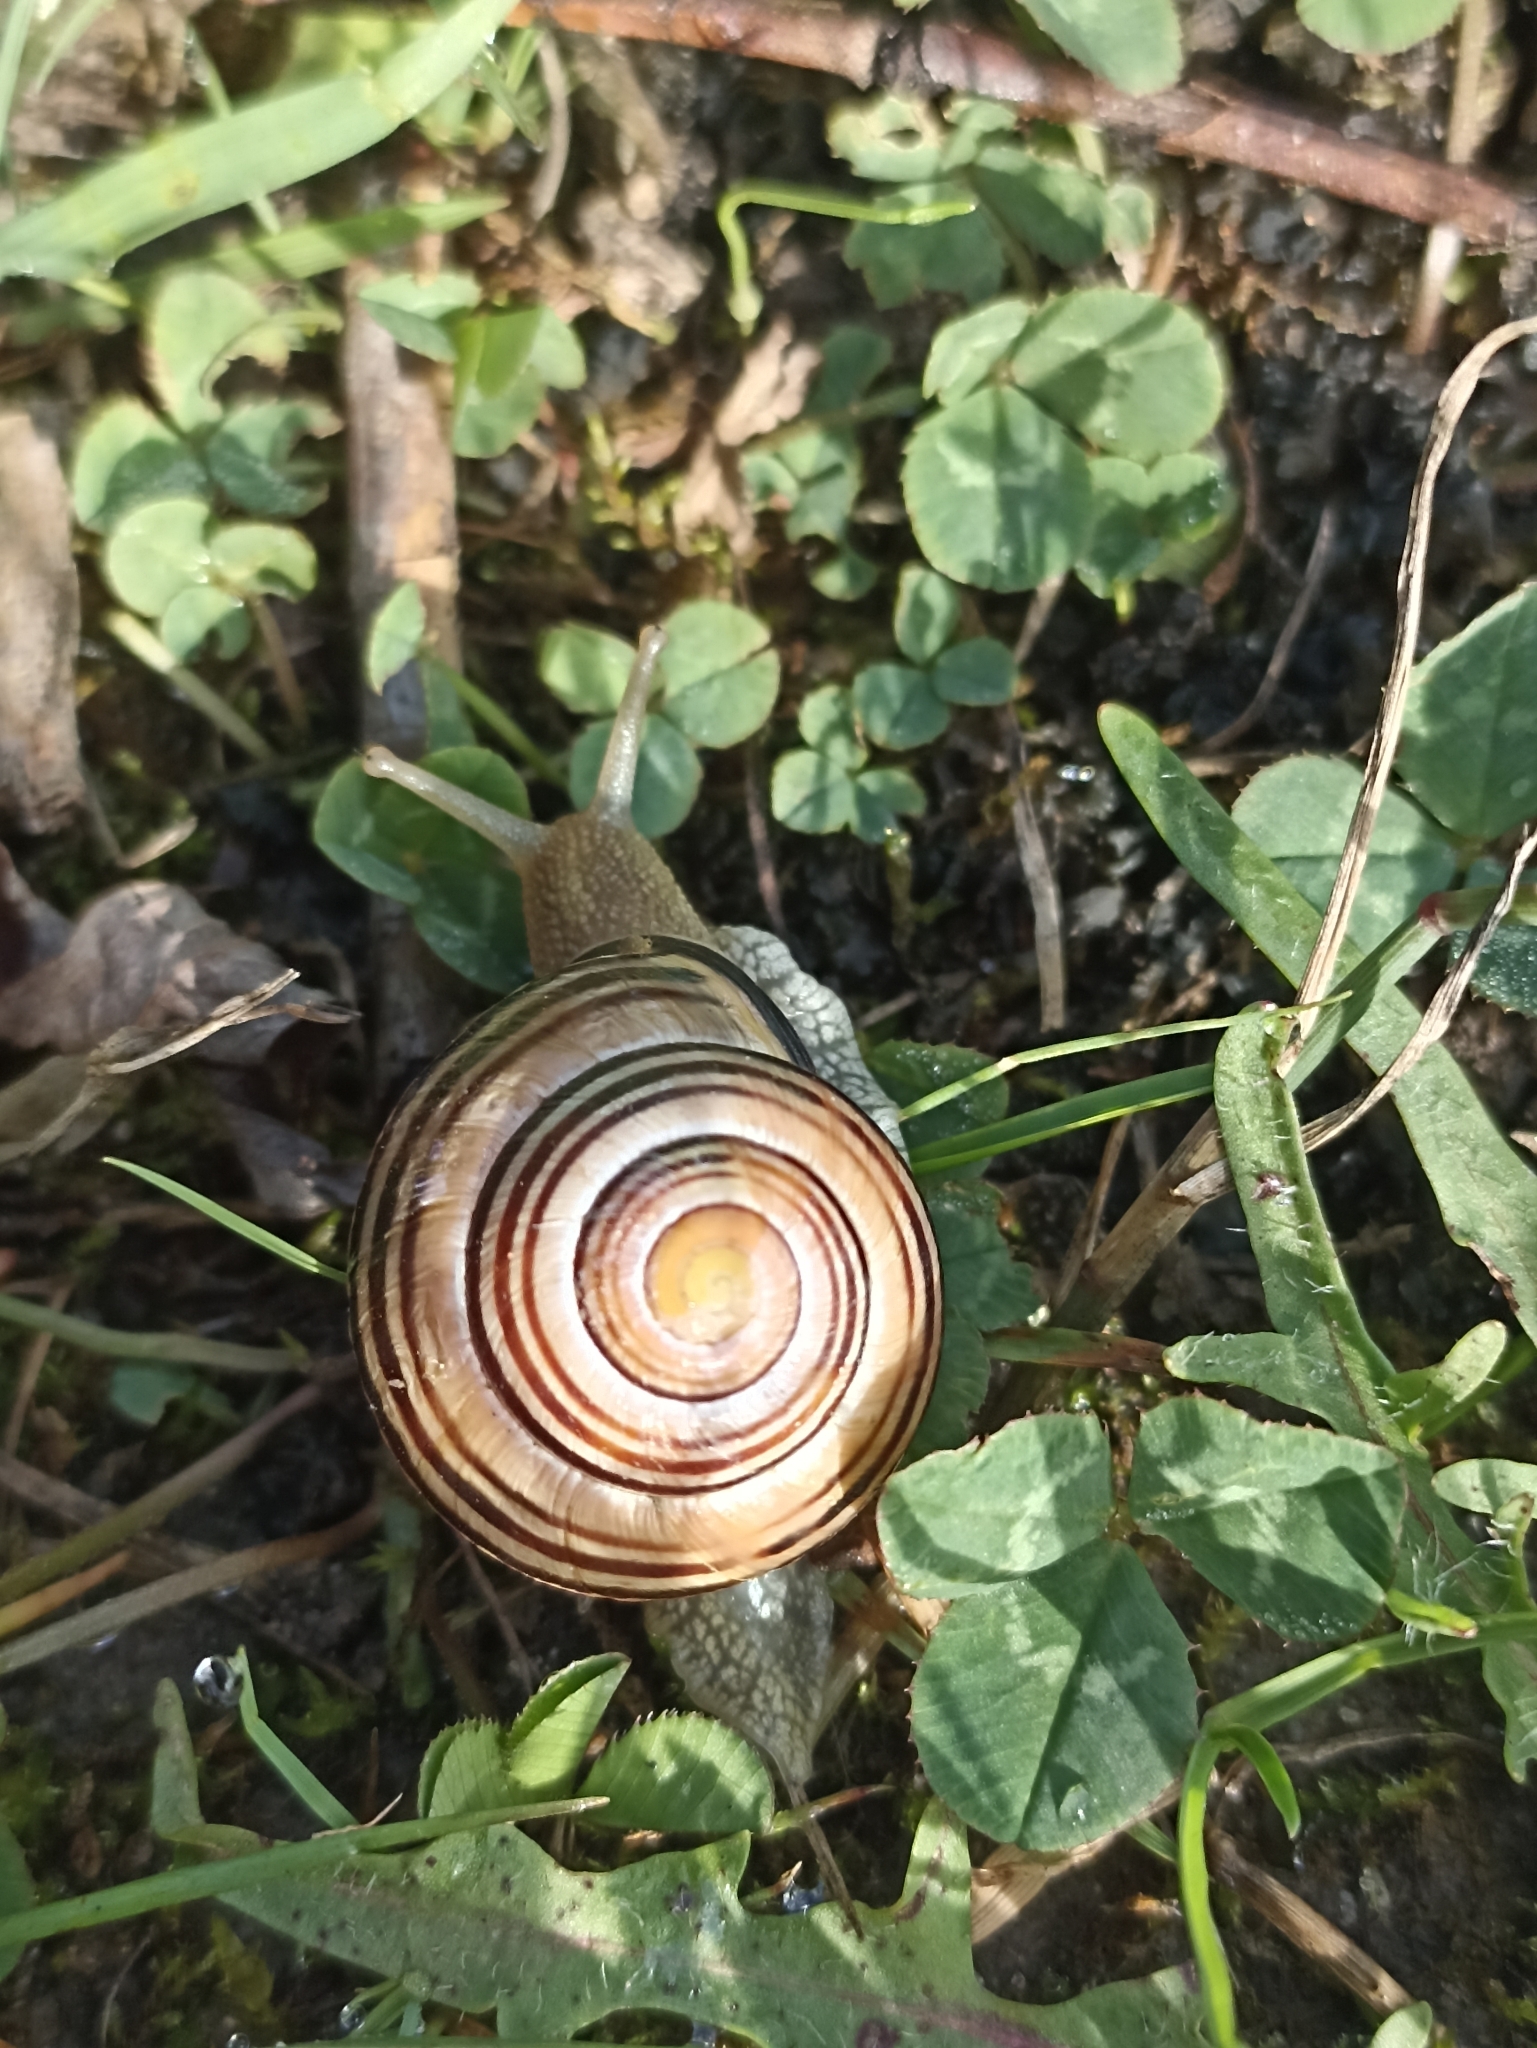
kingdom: Animalia
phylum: Mollusca
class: Gastropoda
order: Stylommatophora
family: Helicidae
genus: Cepaea
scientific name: Cepaea nemoralis
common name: Grovesnail
